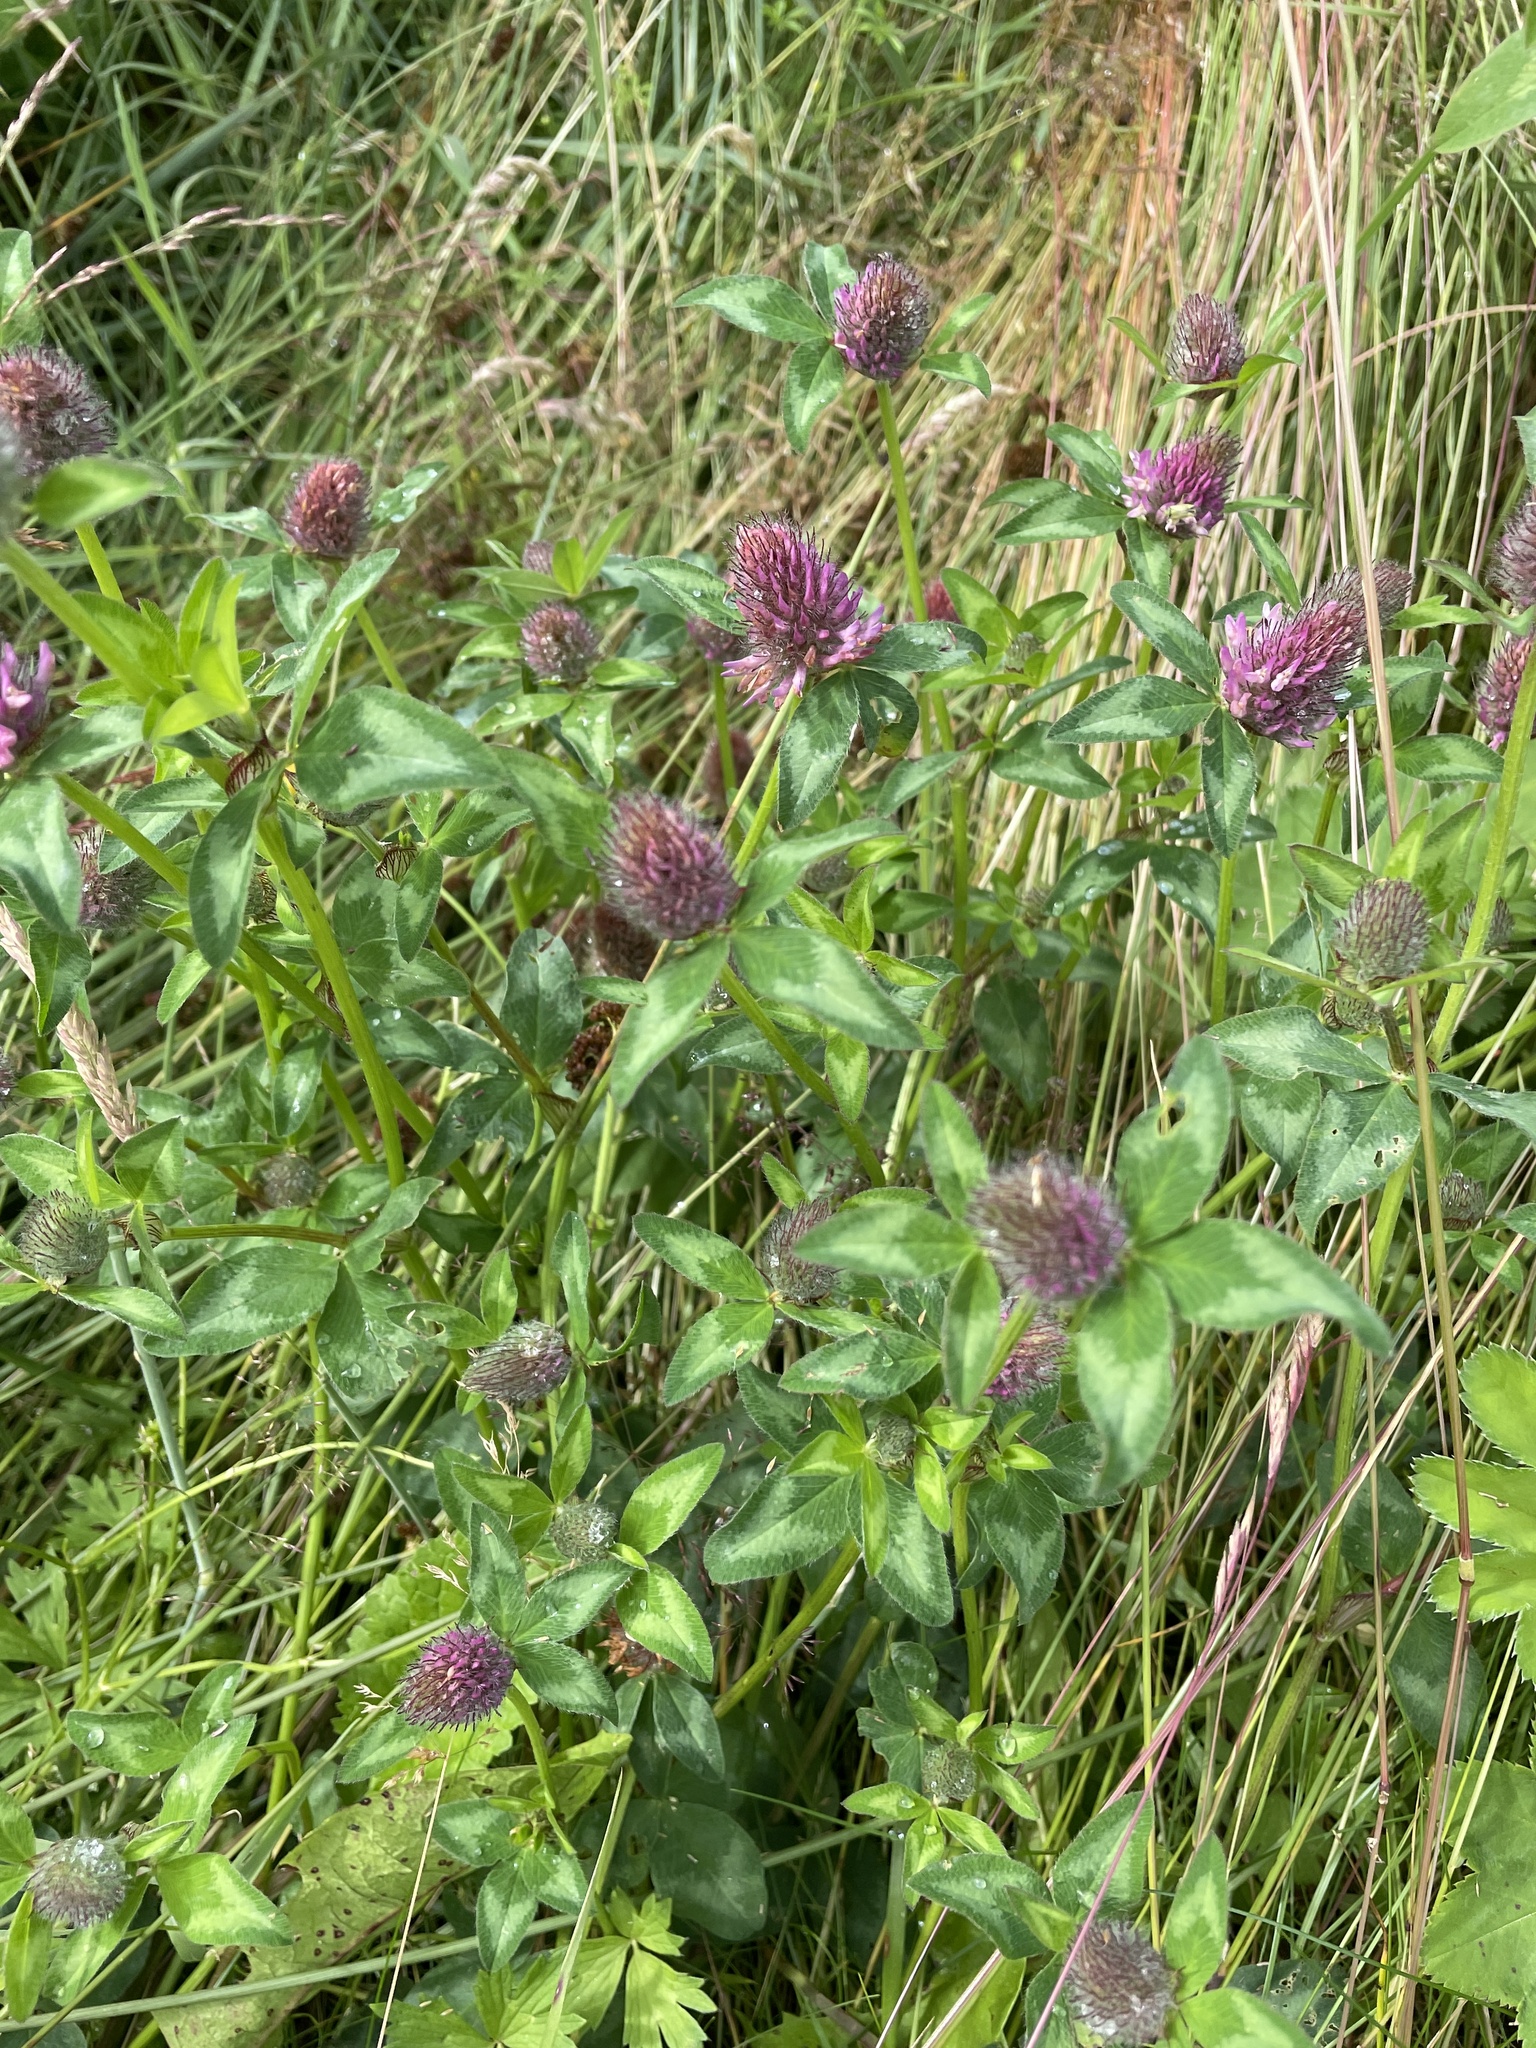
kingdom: Plantae
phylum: Tracheophyta
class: Magnoliopsida
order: Fabales
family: Fabaceae
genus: Trifolium
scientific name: Trifolium pratense
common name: Red clover
